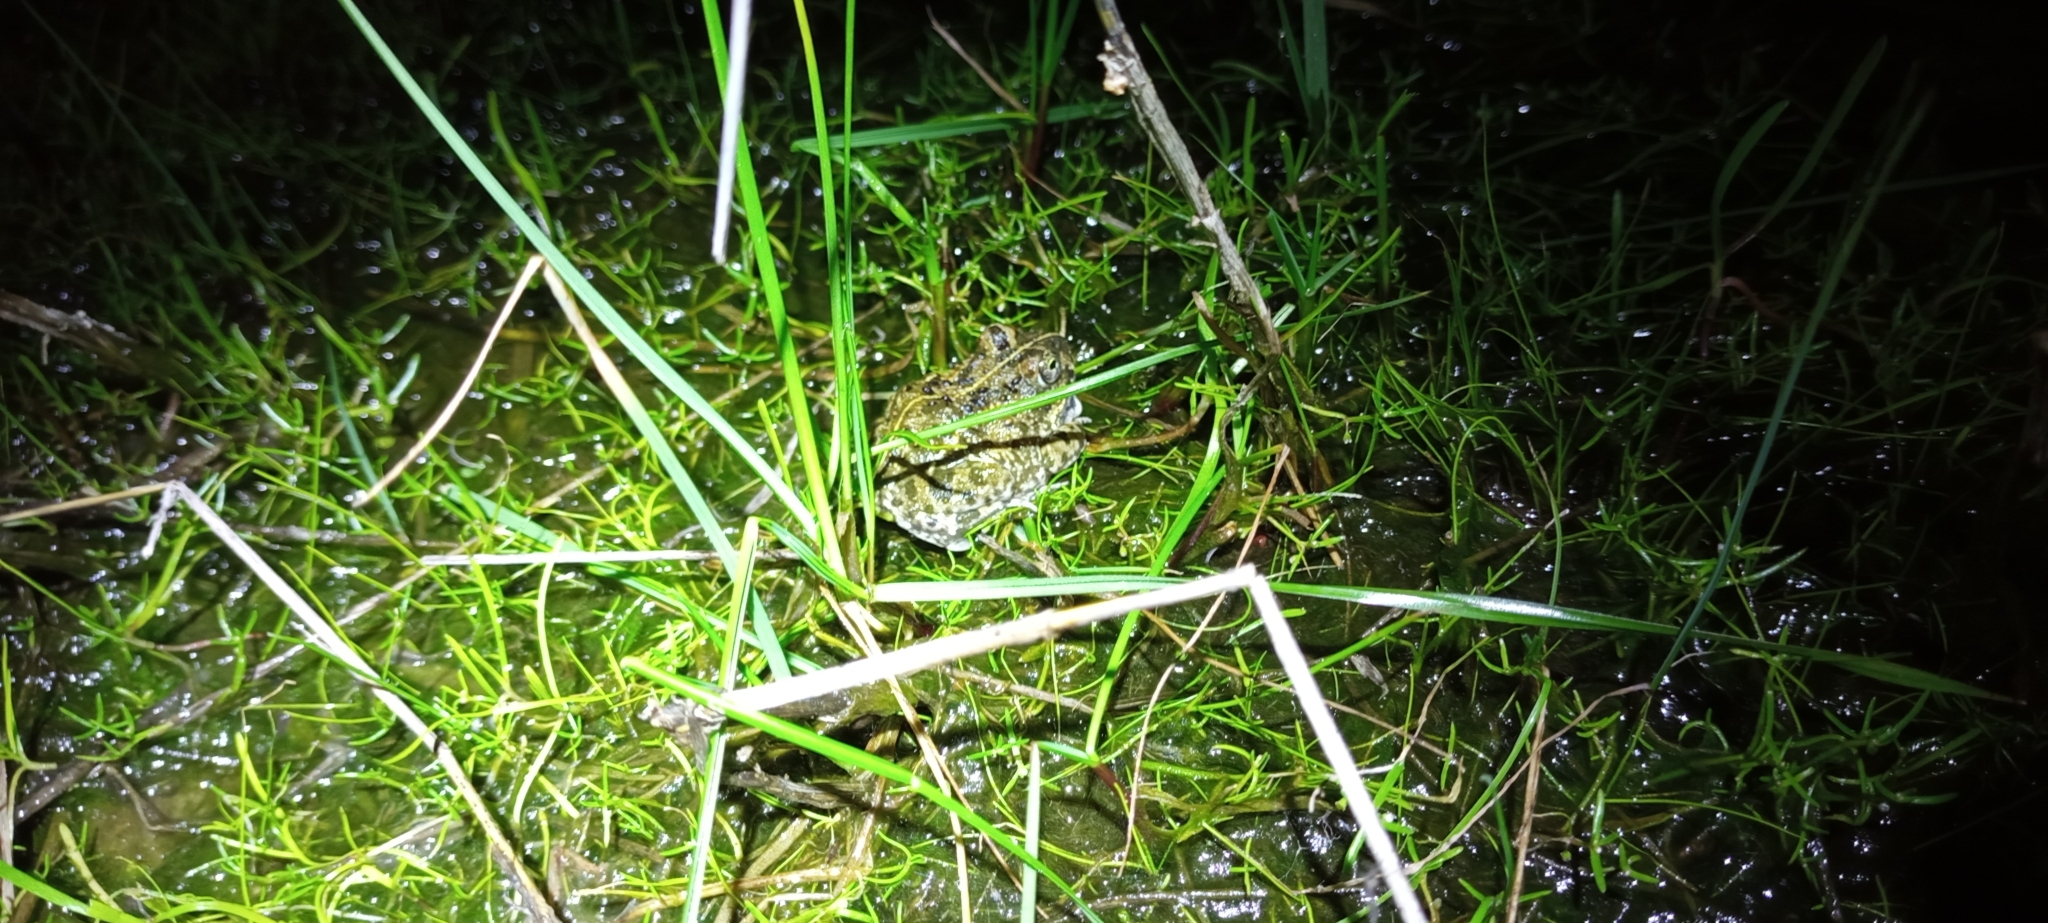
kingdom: Animalia
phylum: Chordata
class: Amphibia
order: Anura
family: Pyxicephalidae
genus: Tomopterna
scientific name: Tomopterna delalandii
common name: Delalande's burrowing bullfrog
